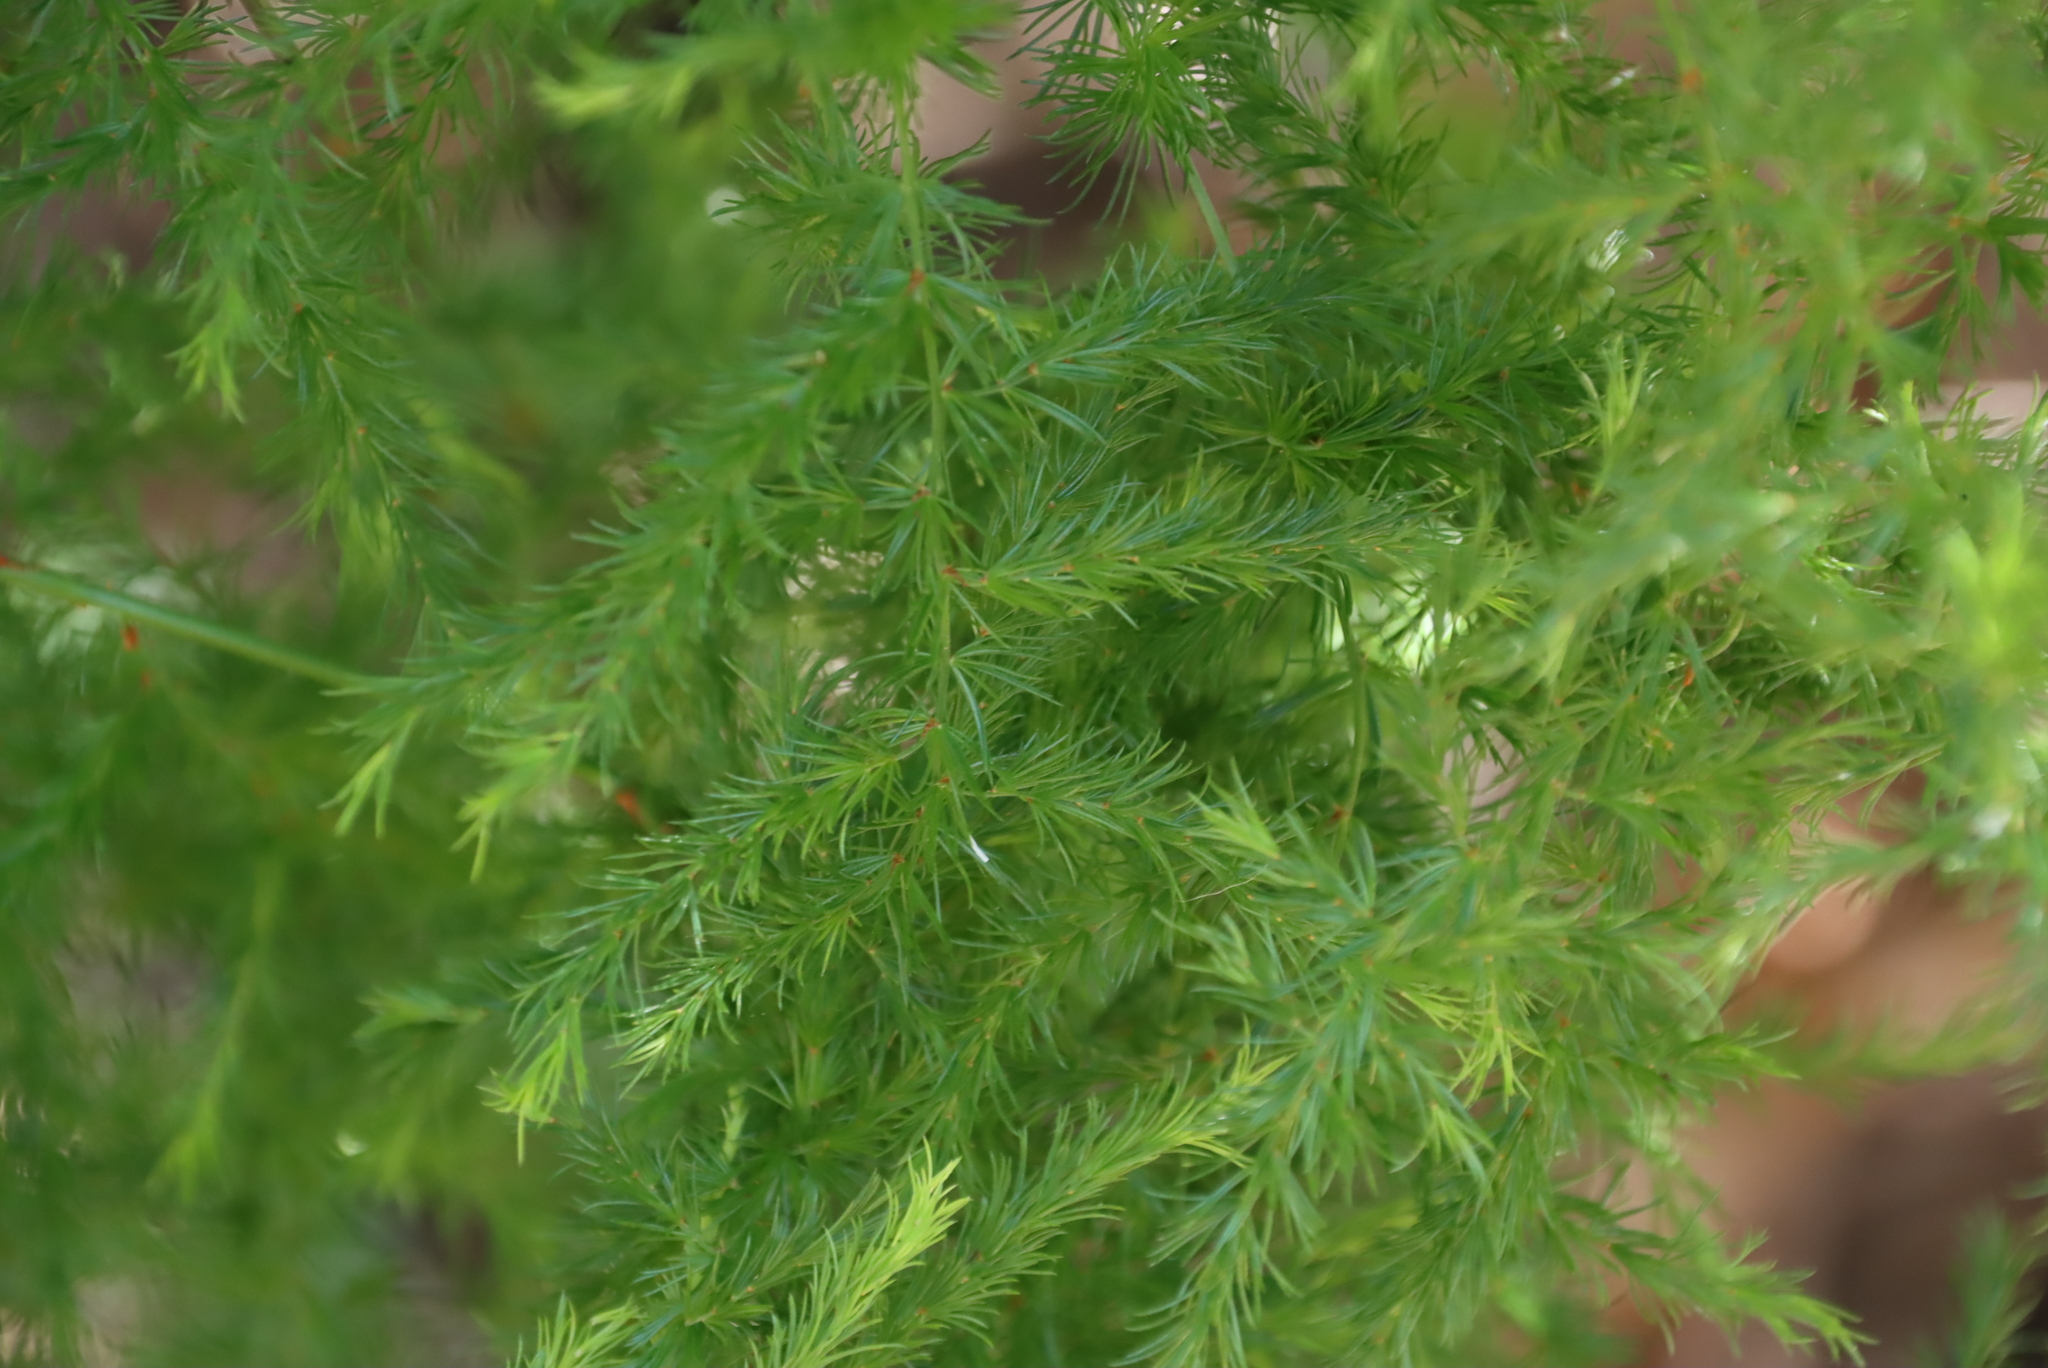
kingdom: Plantae
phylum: Tracheophyta
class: Liliopsida
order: Asparagales
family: Asparagaceae
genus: Asparagus
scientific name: Asparagus declinatus
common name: Bridal-creeper
